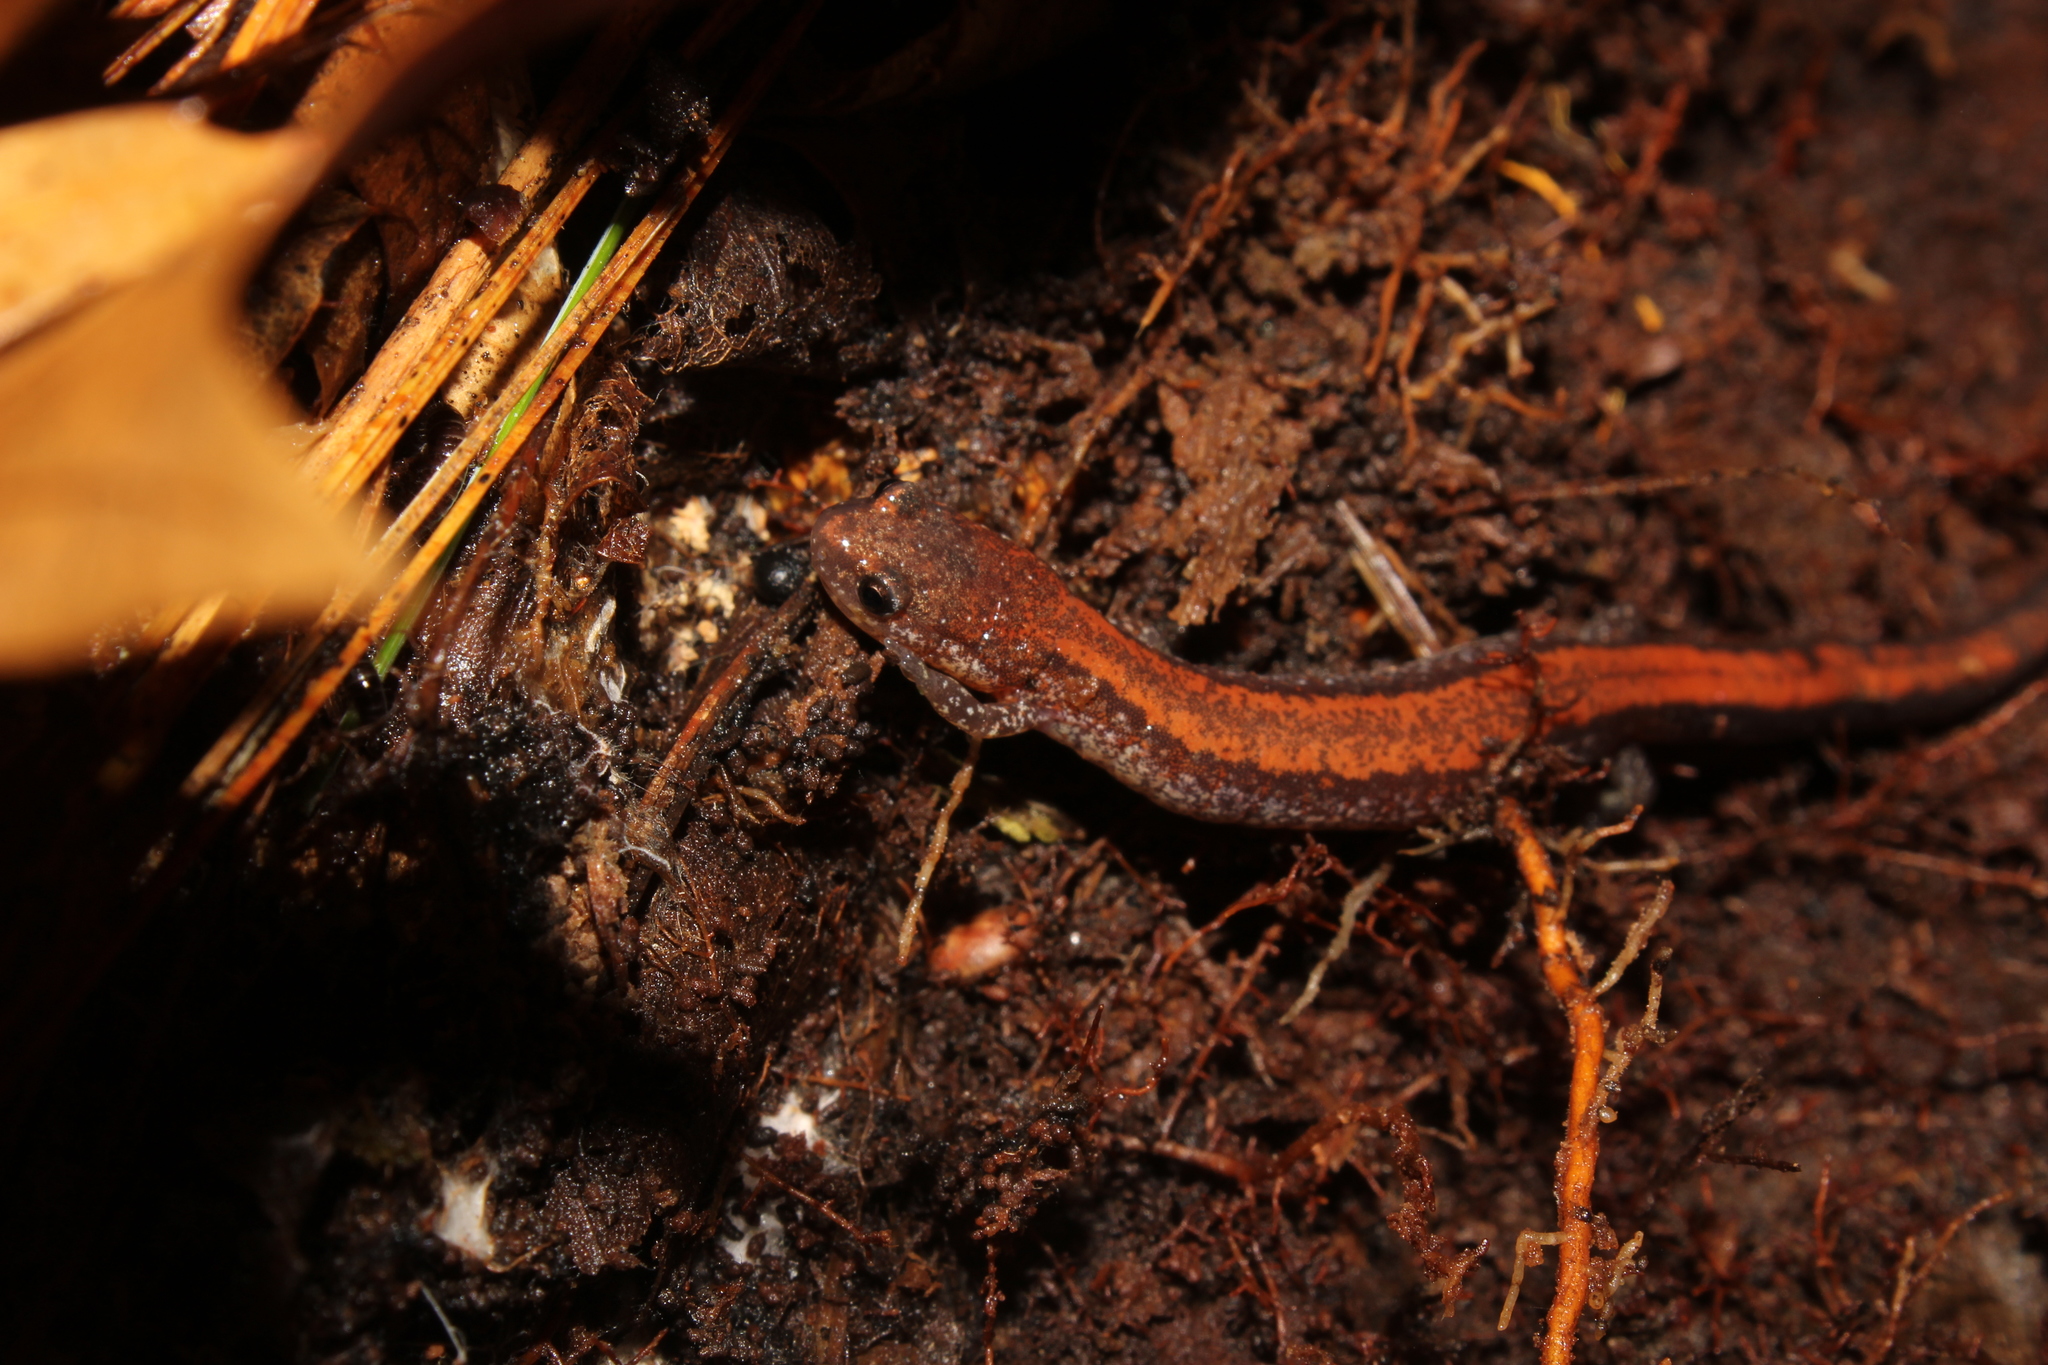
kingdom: Animalia
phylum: Chordata
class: Amphibia
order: Caudata
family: Plethodontidae
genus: Plethodon
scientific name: Plethodon cinereus
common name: Redback salamander
